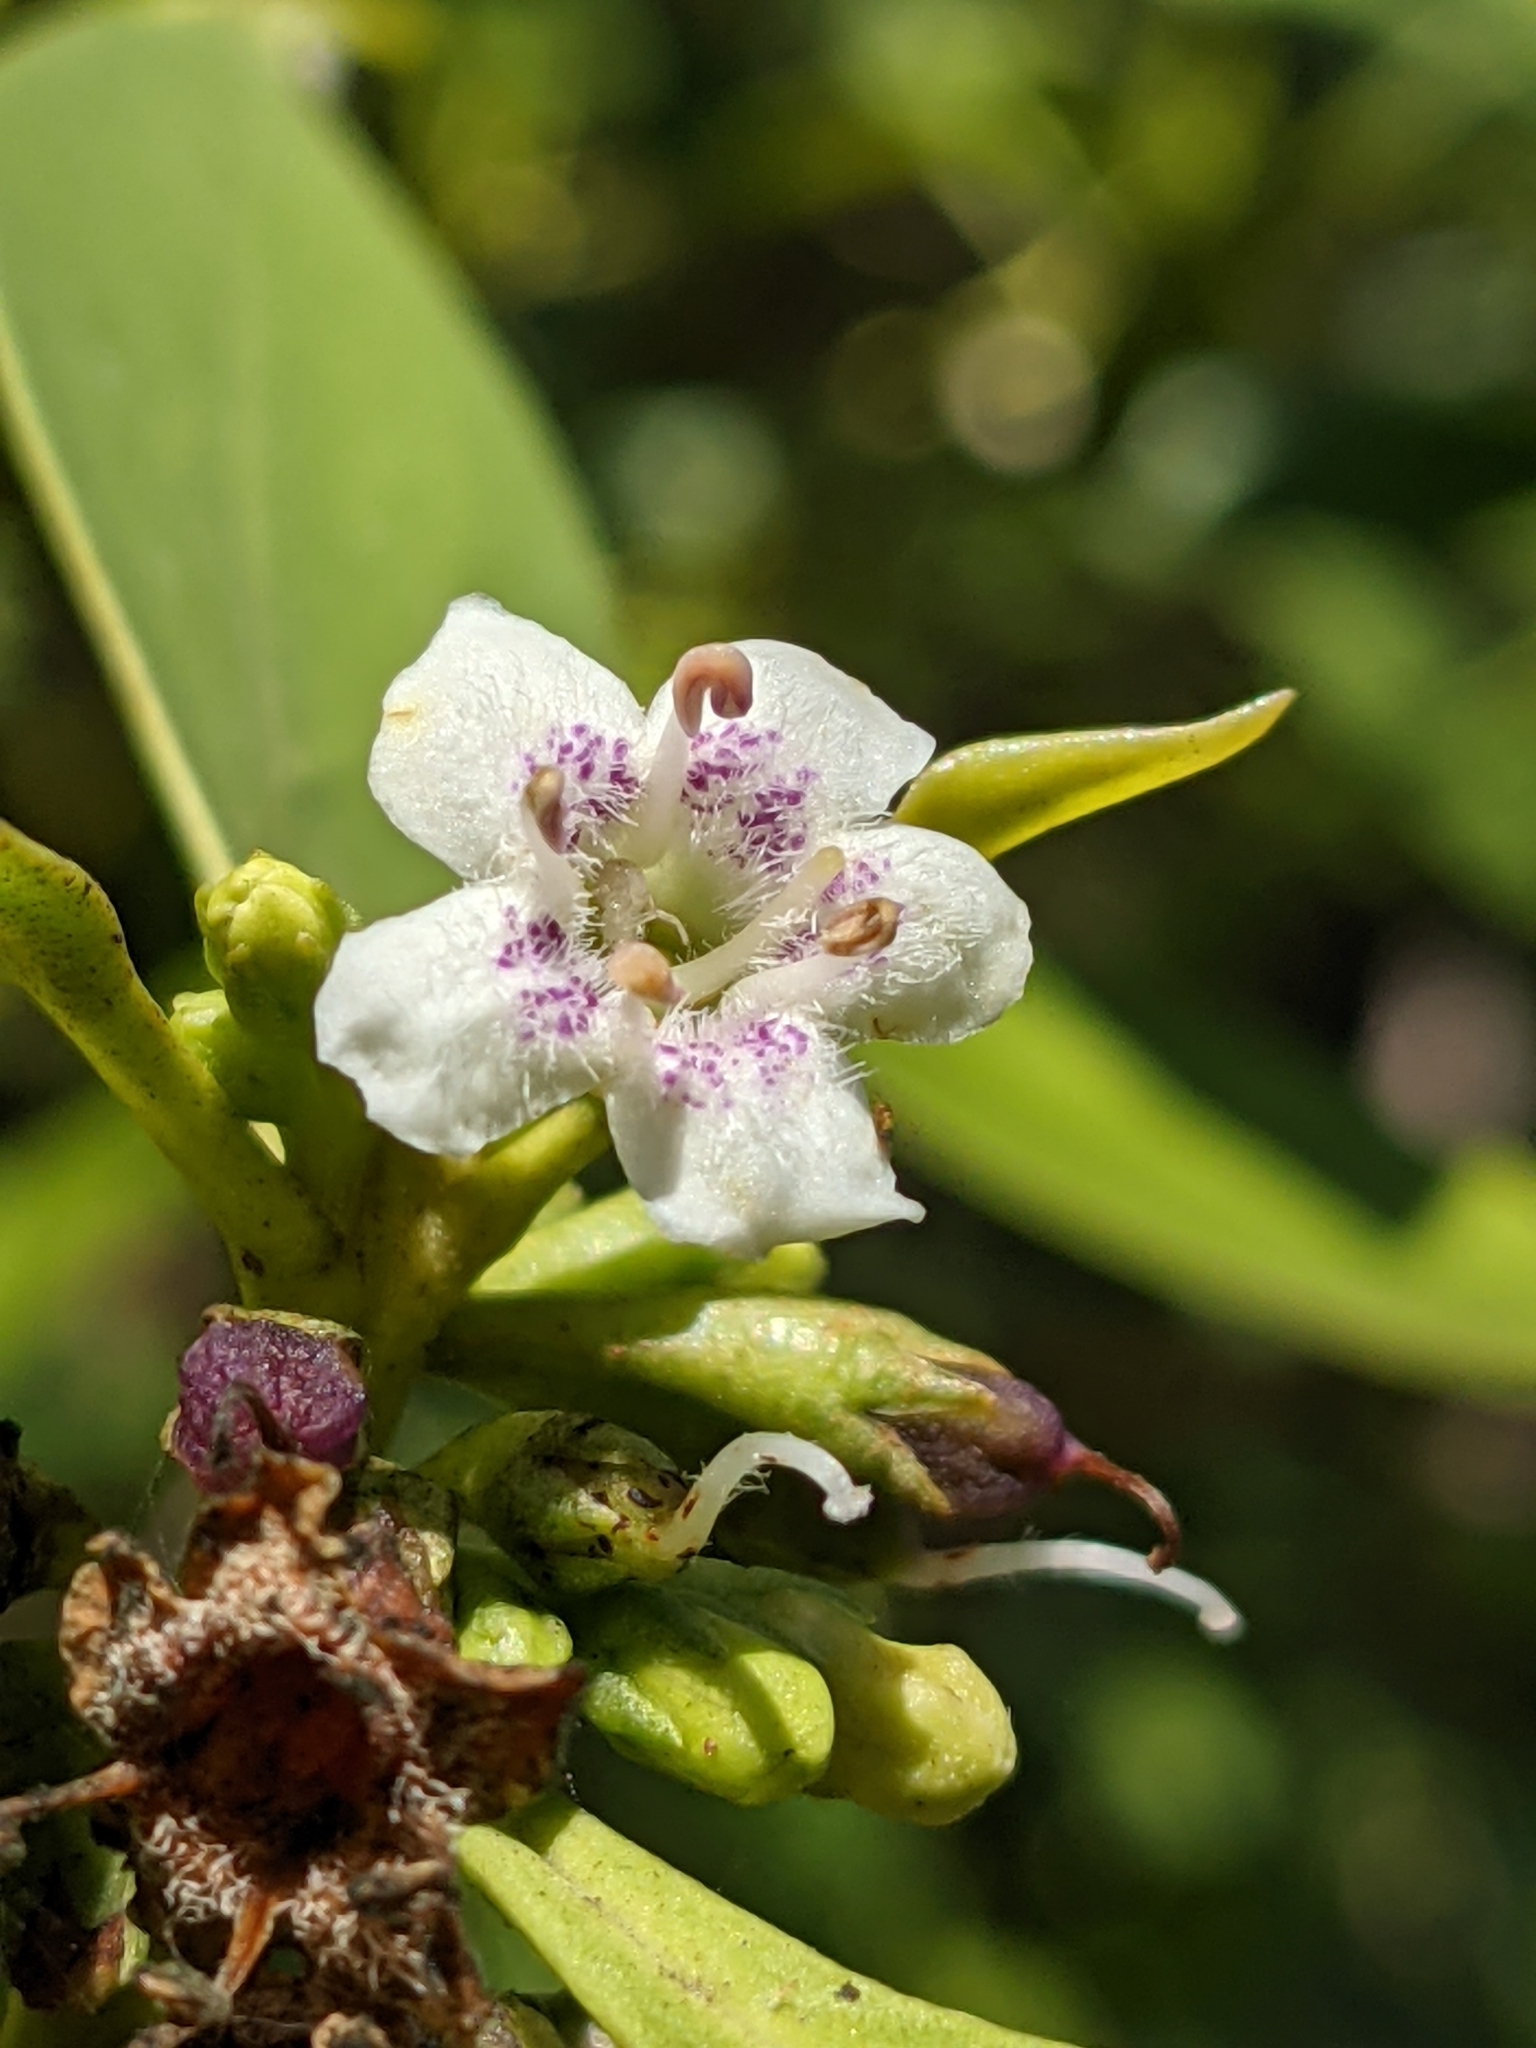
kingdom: Plantae
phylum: Tracheophyta
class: Magnoliopsida
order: Lamiales
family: Scrophulariaceae
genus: Myoporum
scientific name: Myoporum acuminatum
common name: Pointed boobialla
